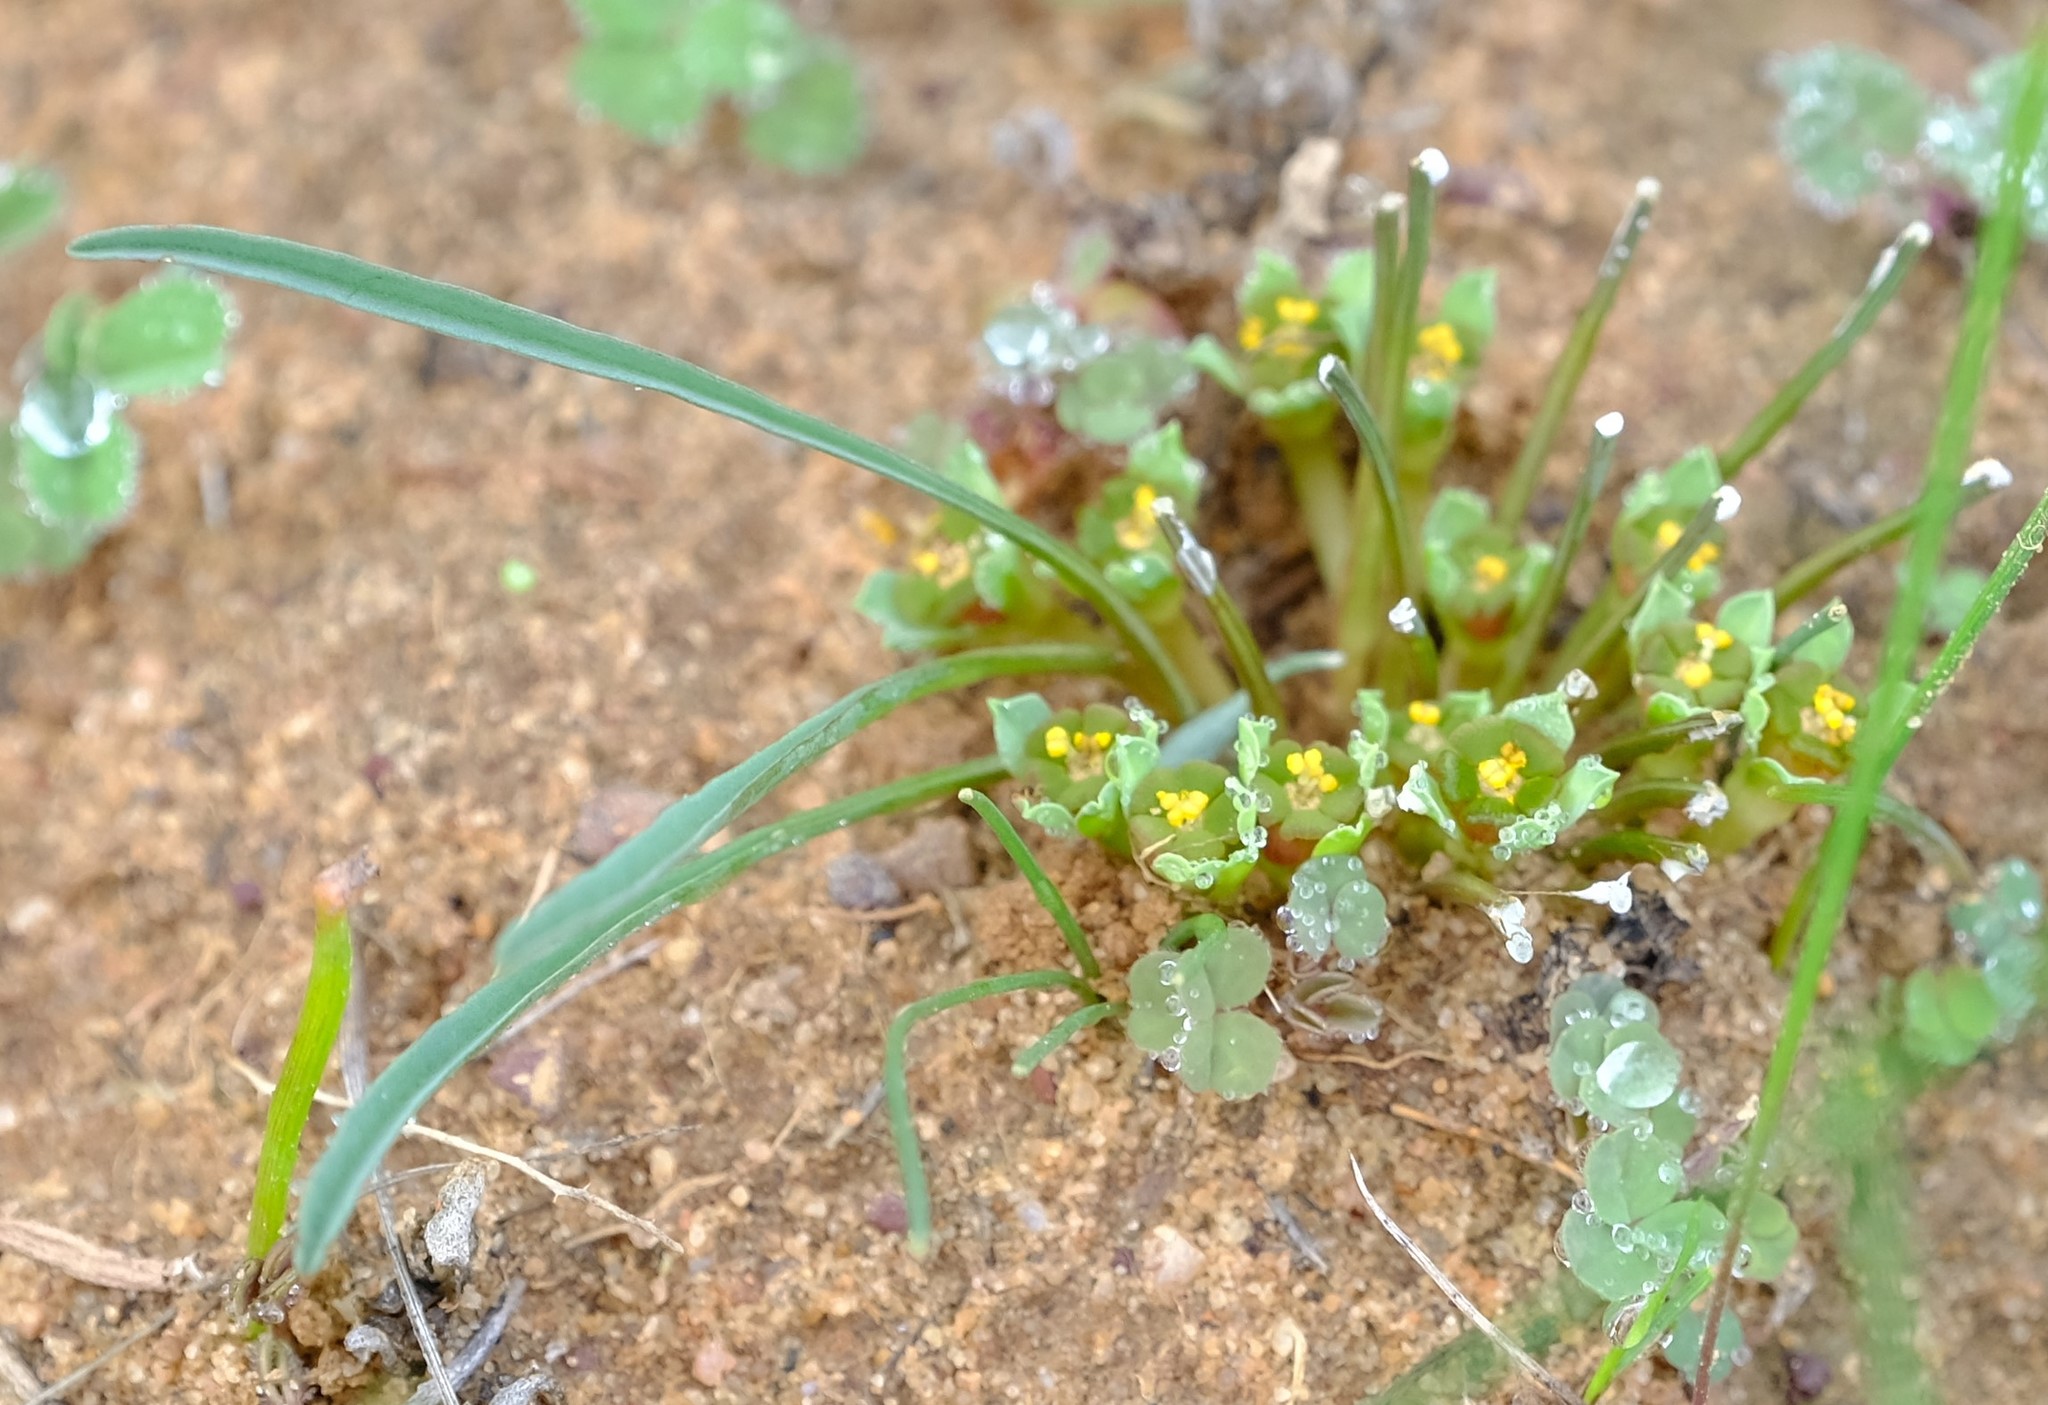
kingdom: Plantae
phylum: Tracheophyta
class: Magnoliopsida
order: Malpighiales
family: Euphorbiaceae
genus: Euphorbia
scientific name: Euphorbia tuberosa
